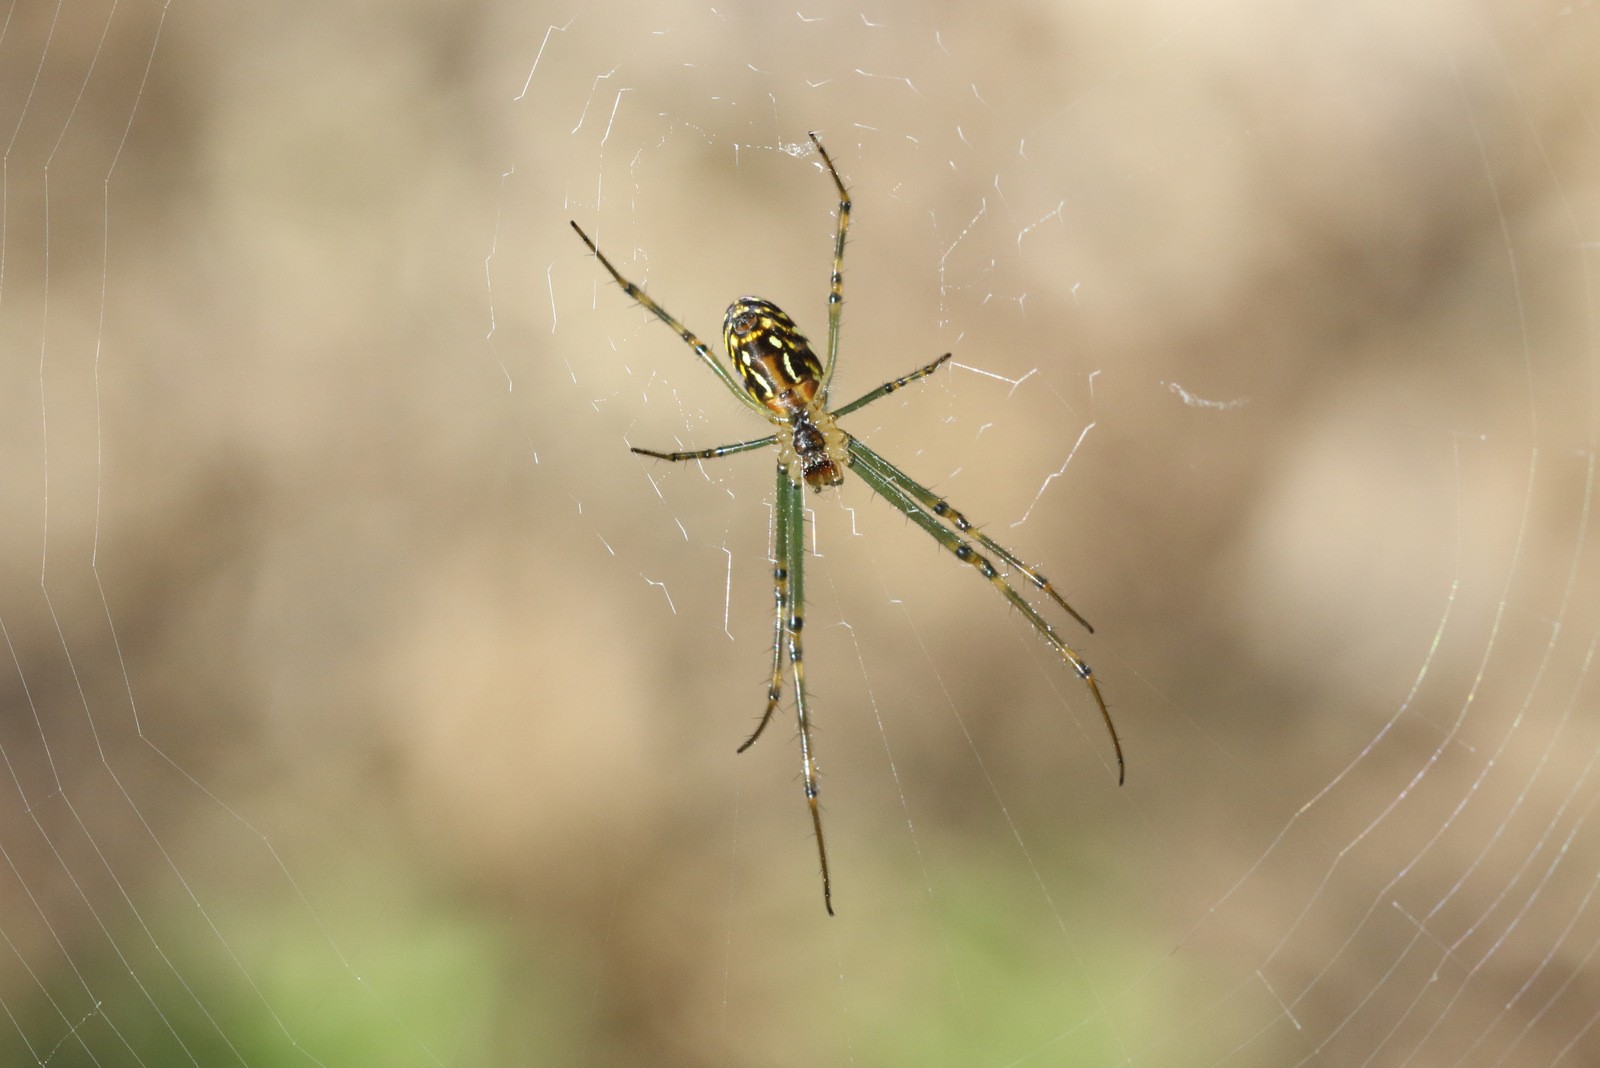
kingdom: Animalia
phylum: Arthropoda
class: Arachnida
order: Araneae
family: Tetragnathidae
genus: Leucauge
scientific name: Leucauge dromedaria
